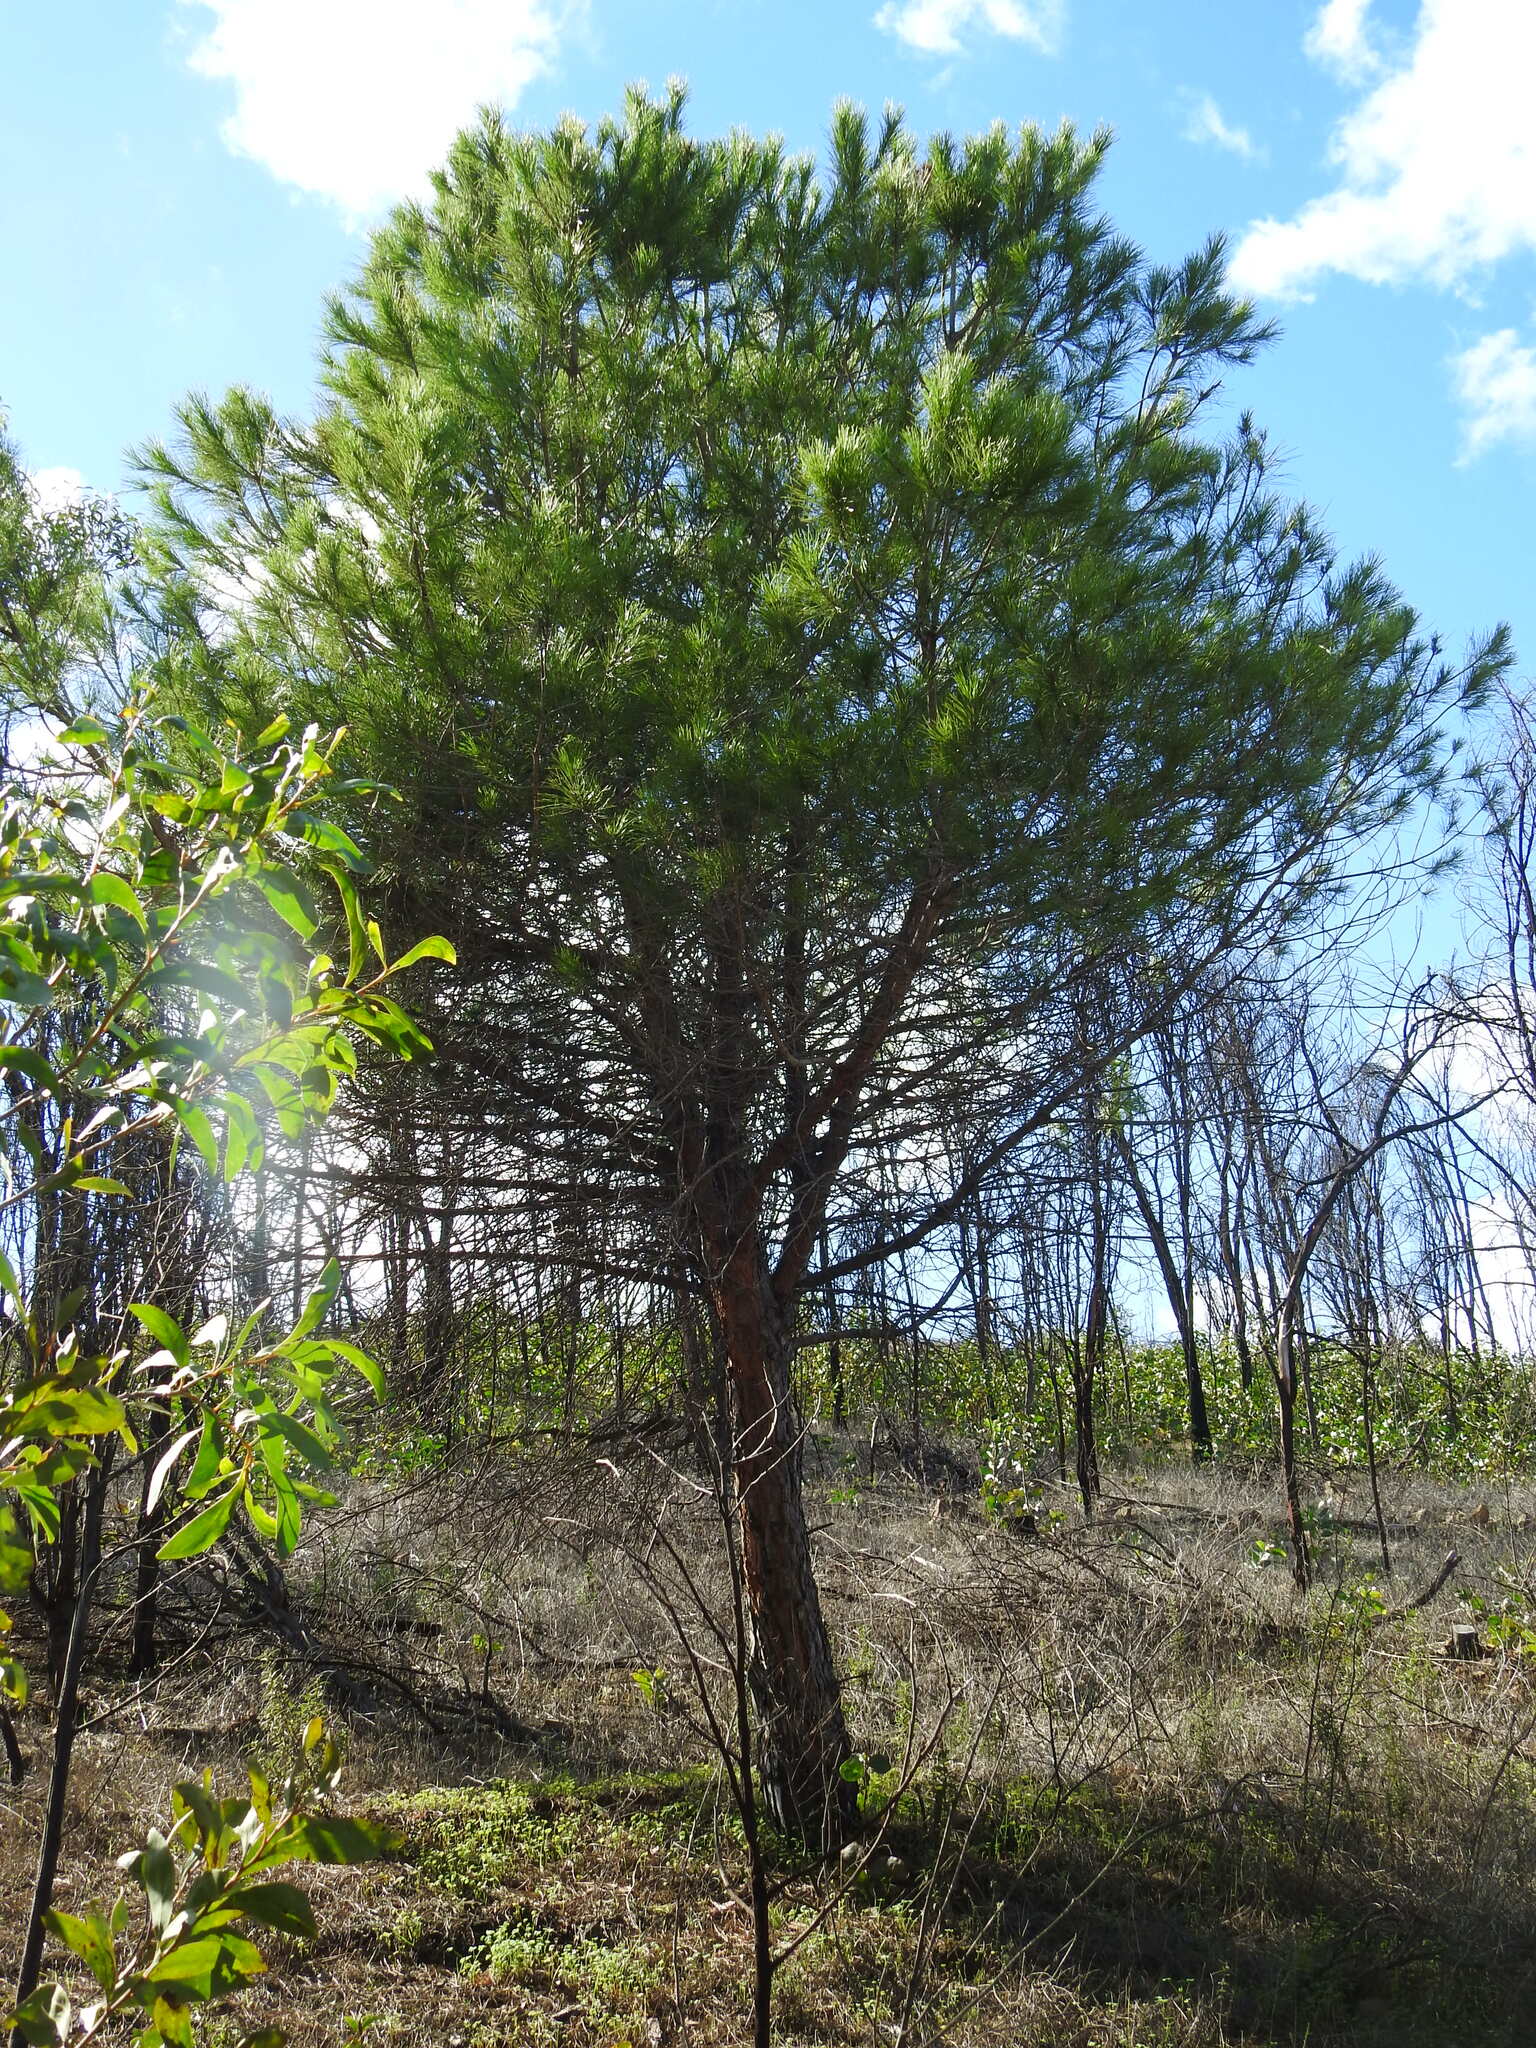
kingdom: Plantae
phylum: Tracheophyta
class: Pinopsida
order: Pinales
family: Pinaceae
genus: Pinus
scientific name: Pinus pinea
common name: Italian stone pine
